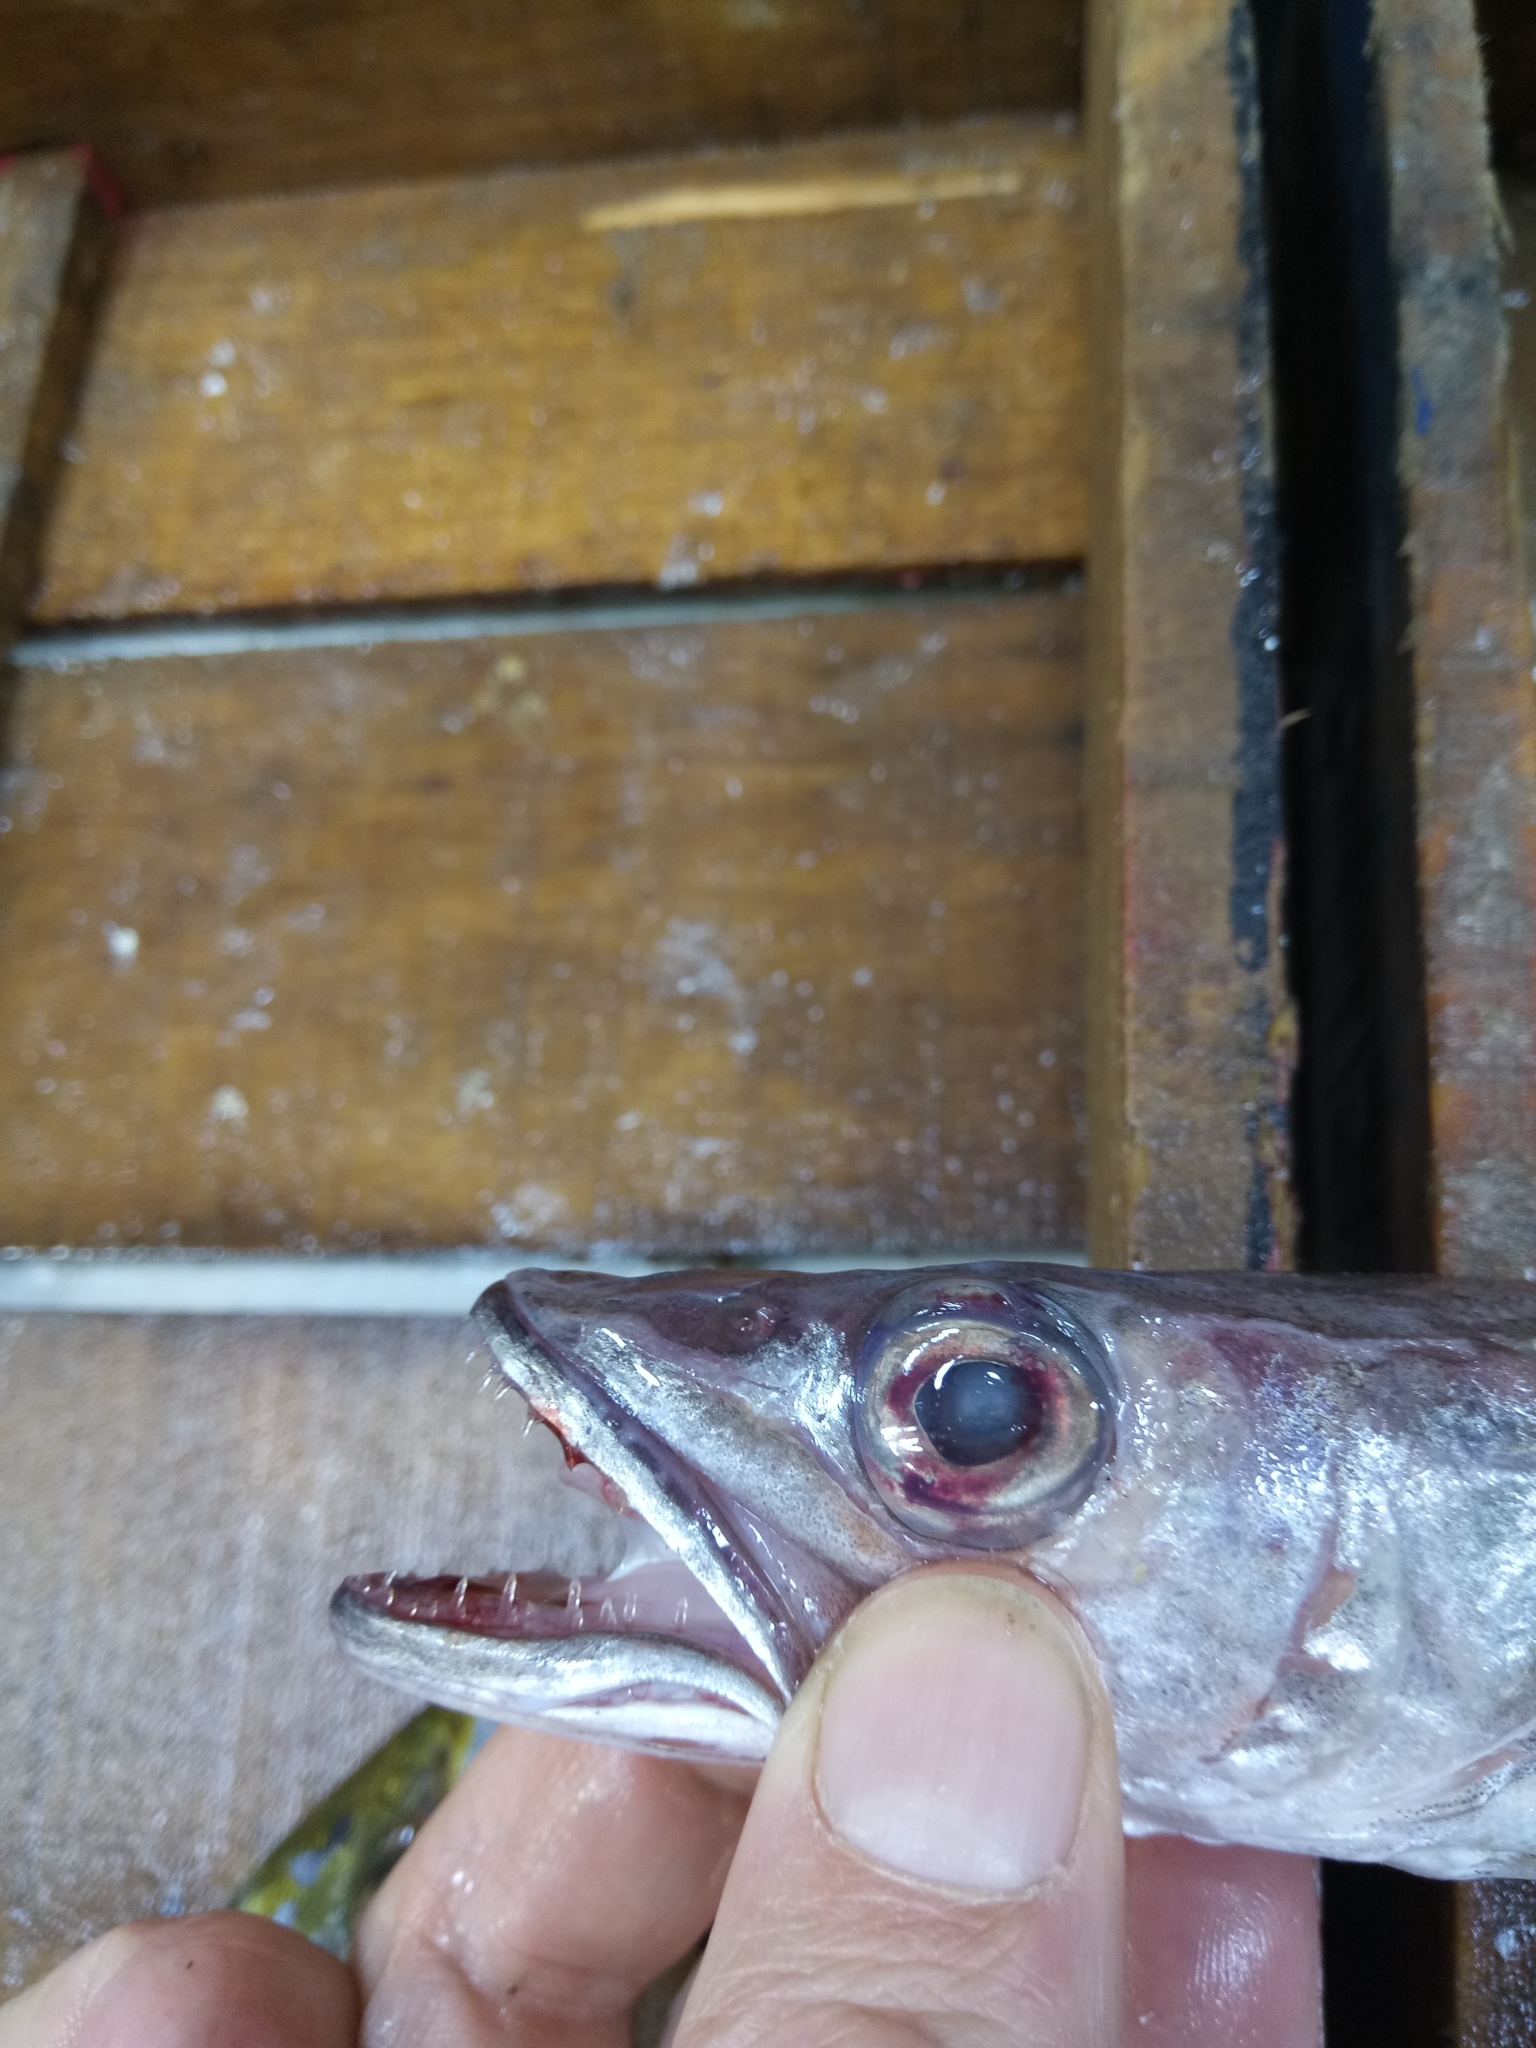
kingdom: Animalia
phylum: Chordata
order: Gadiformes
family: Merlucciidae
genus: Merluccius
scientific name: Merluccius merluccius
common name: European hake
